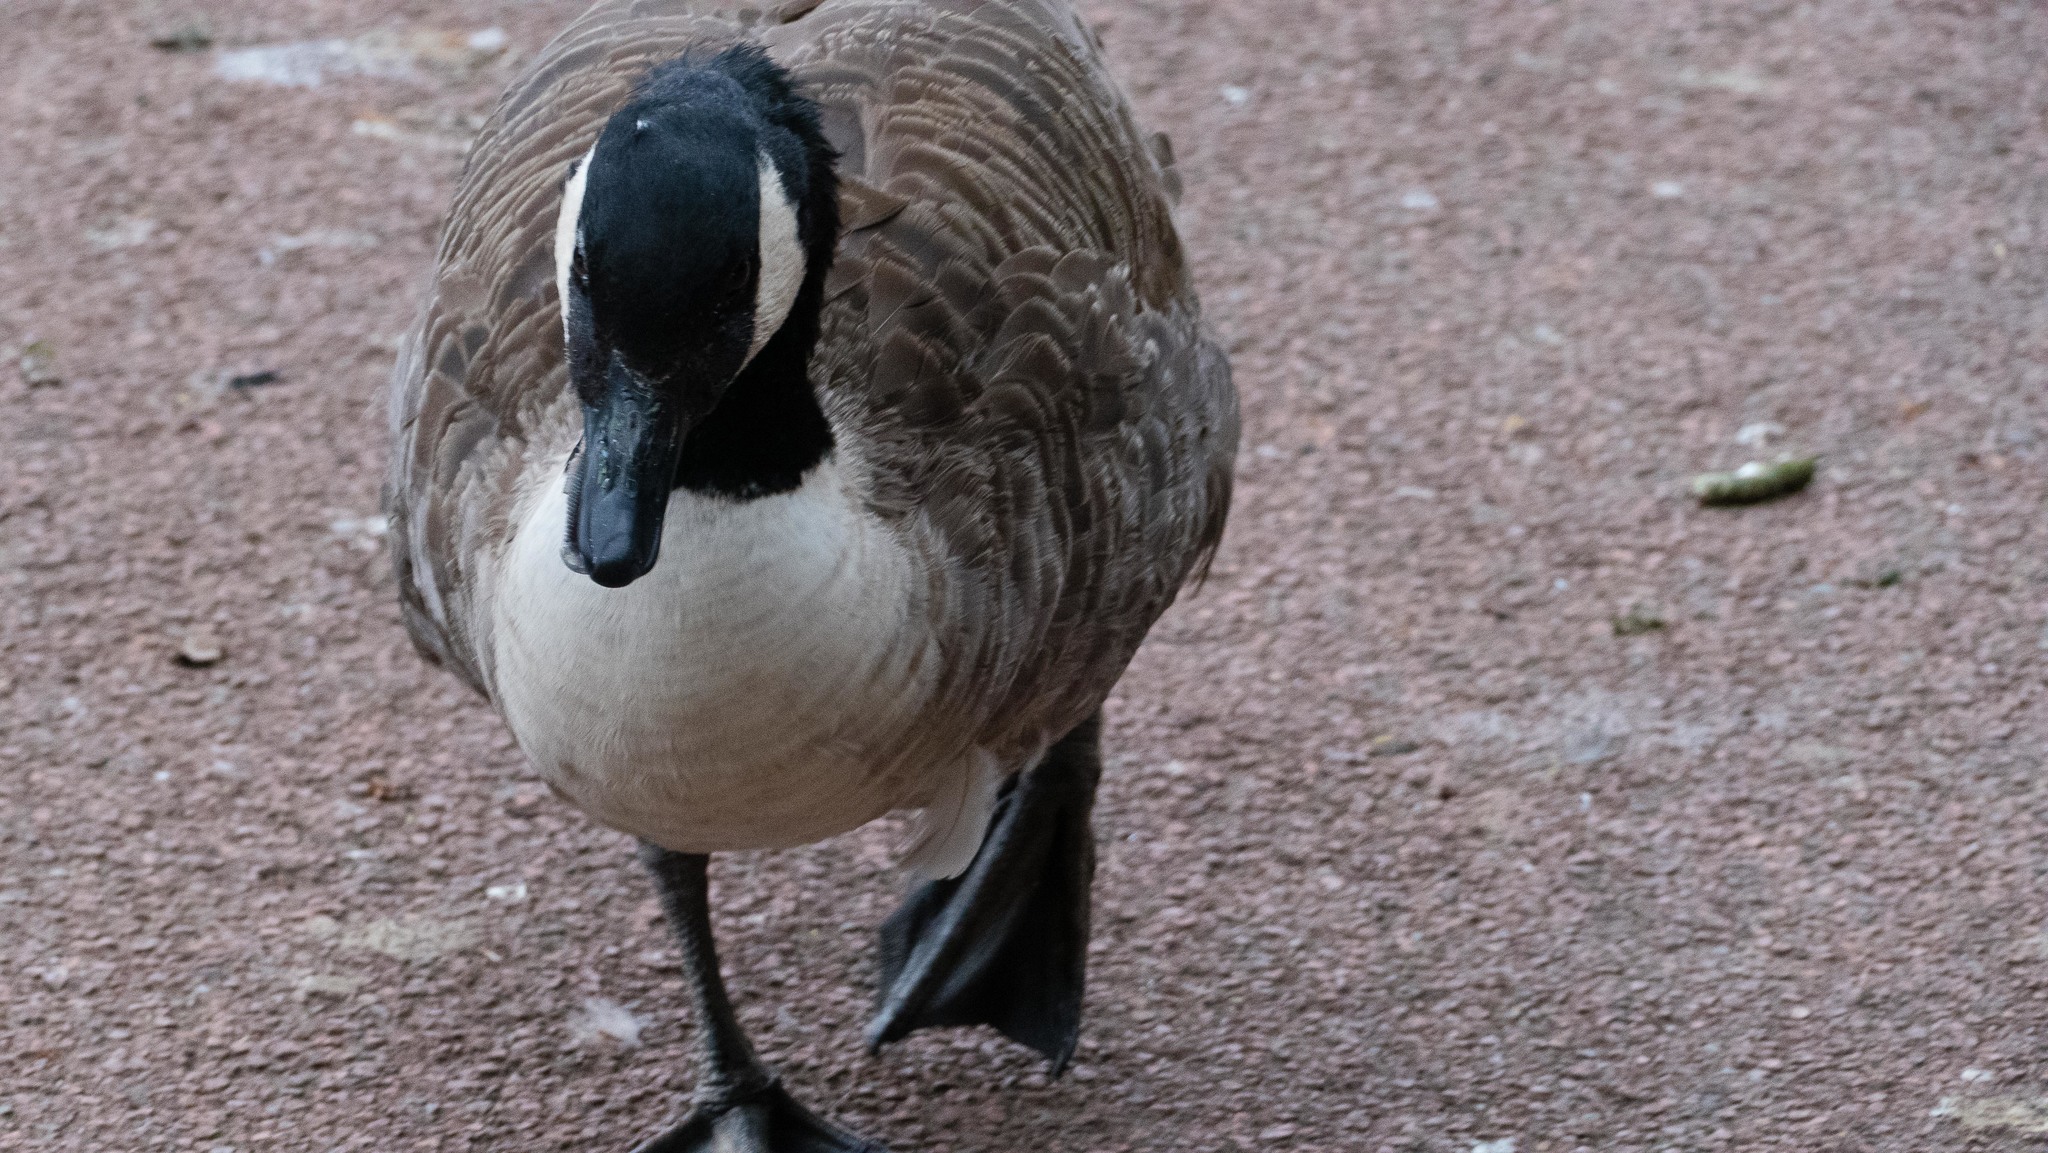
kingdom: Animalia
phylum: Chordata
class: Aves
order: Anseriformes
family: Anatidae
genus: Branta
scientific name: Branta canadensis
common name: Canada goose
